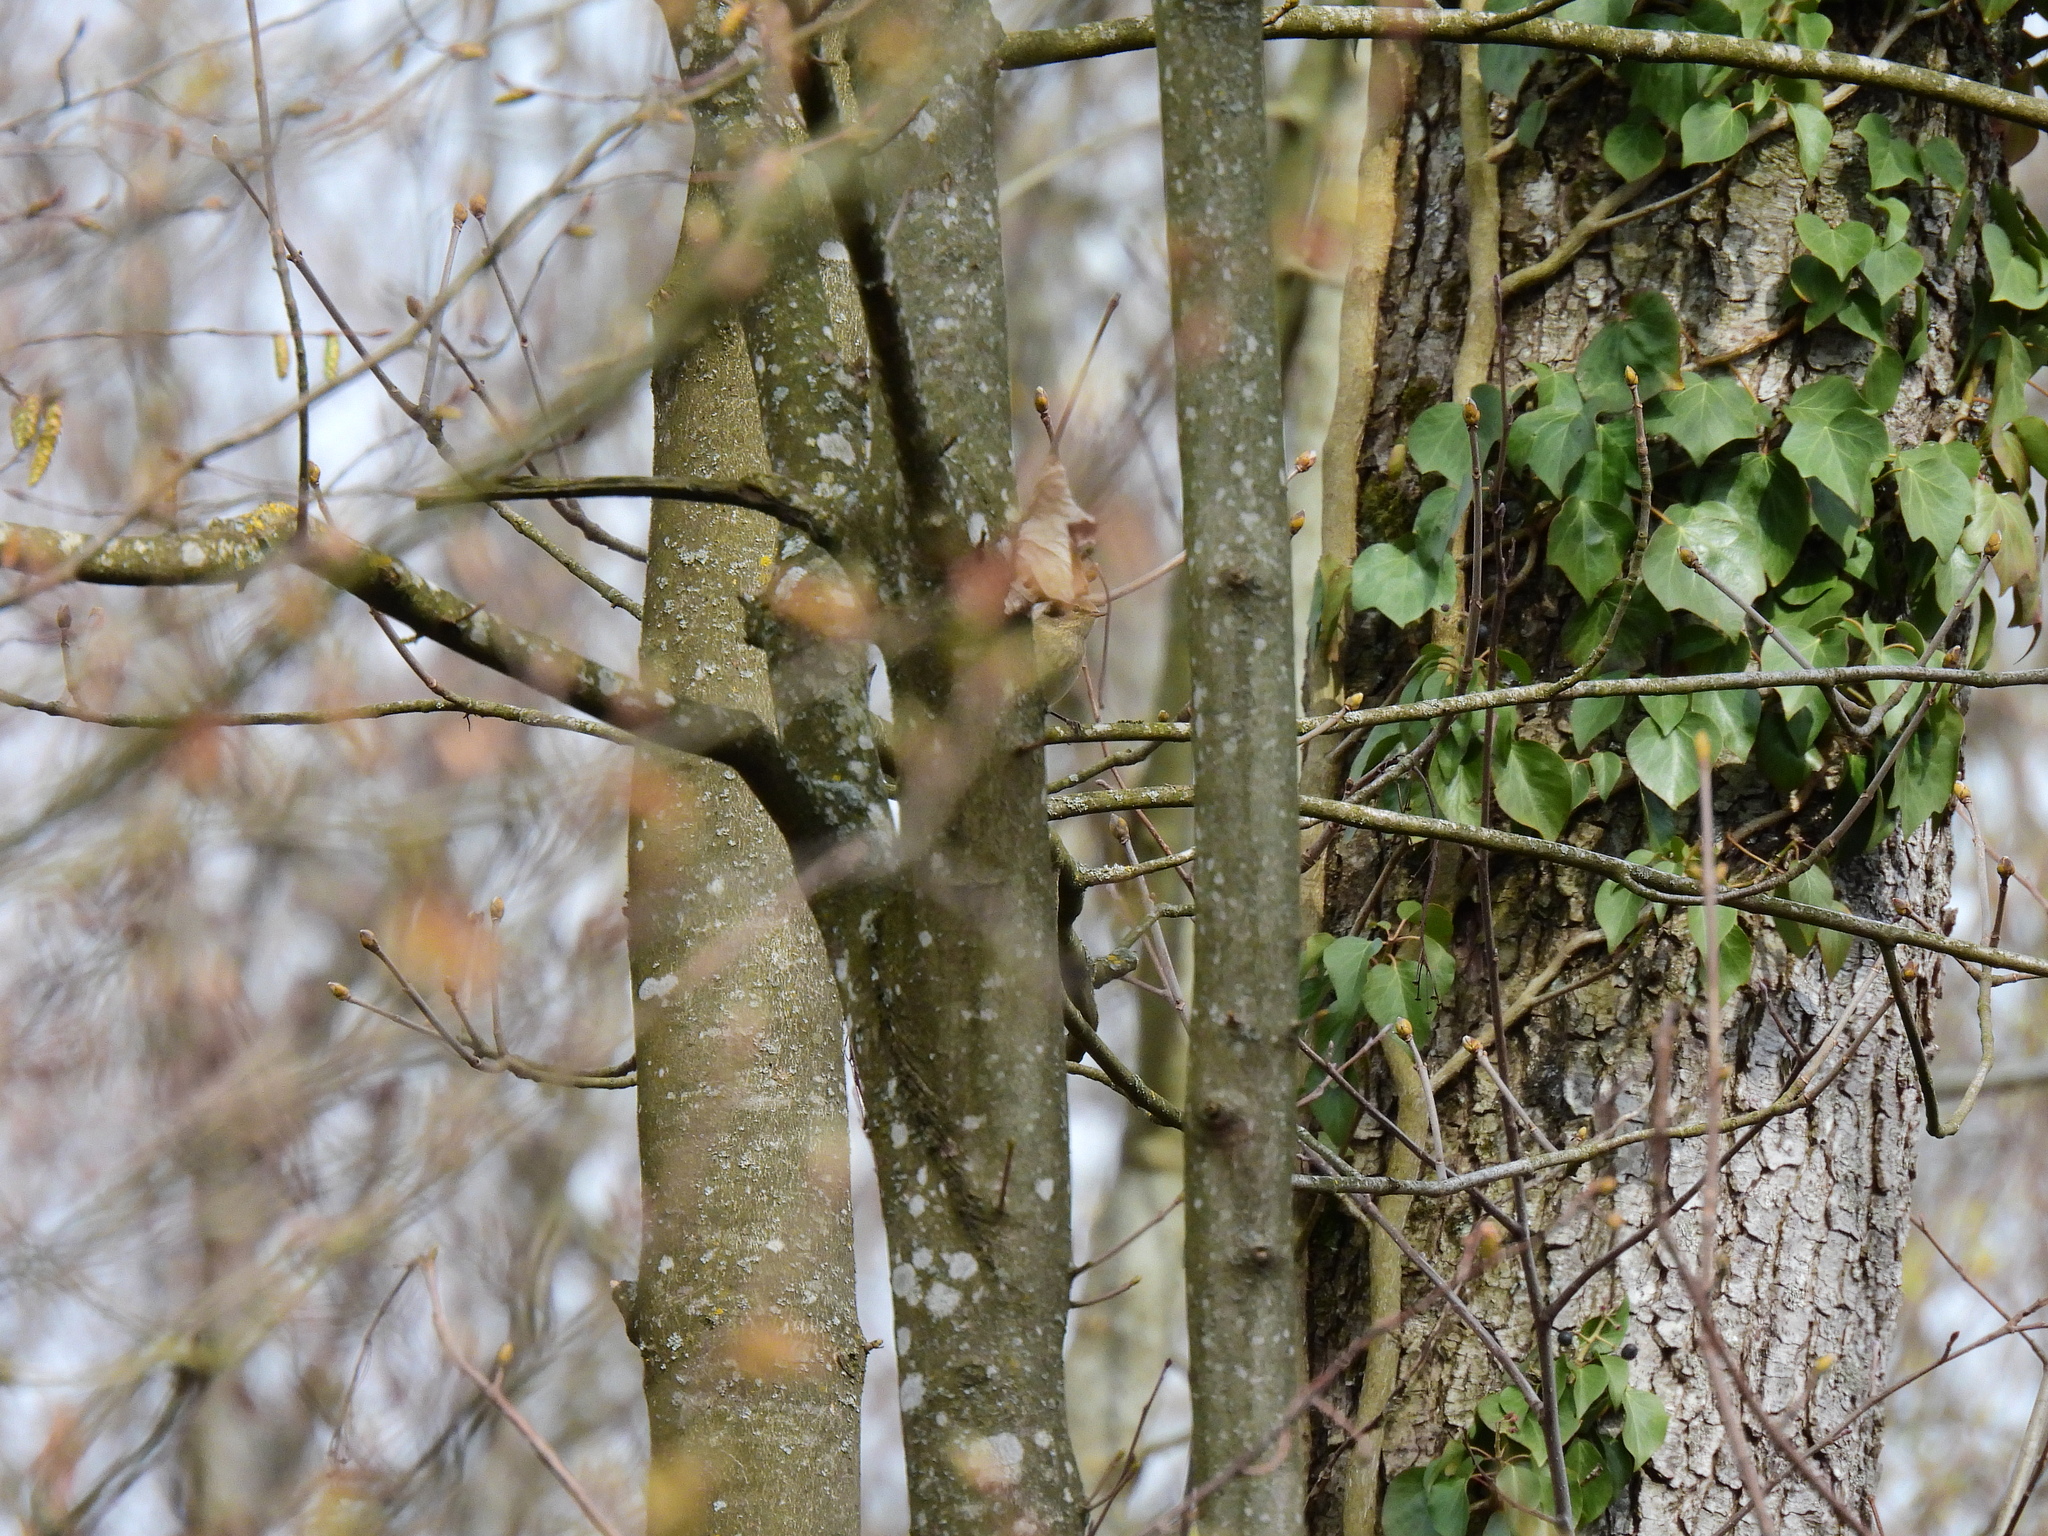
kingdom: Animalia
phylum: Chordata
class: Aves
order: Passeriformes
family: Phylloscopidae
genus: Phylloscopus
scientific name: Phylloscopus collybita
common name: Common chiffchaff
